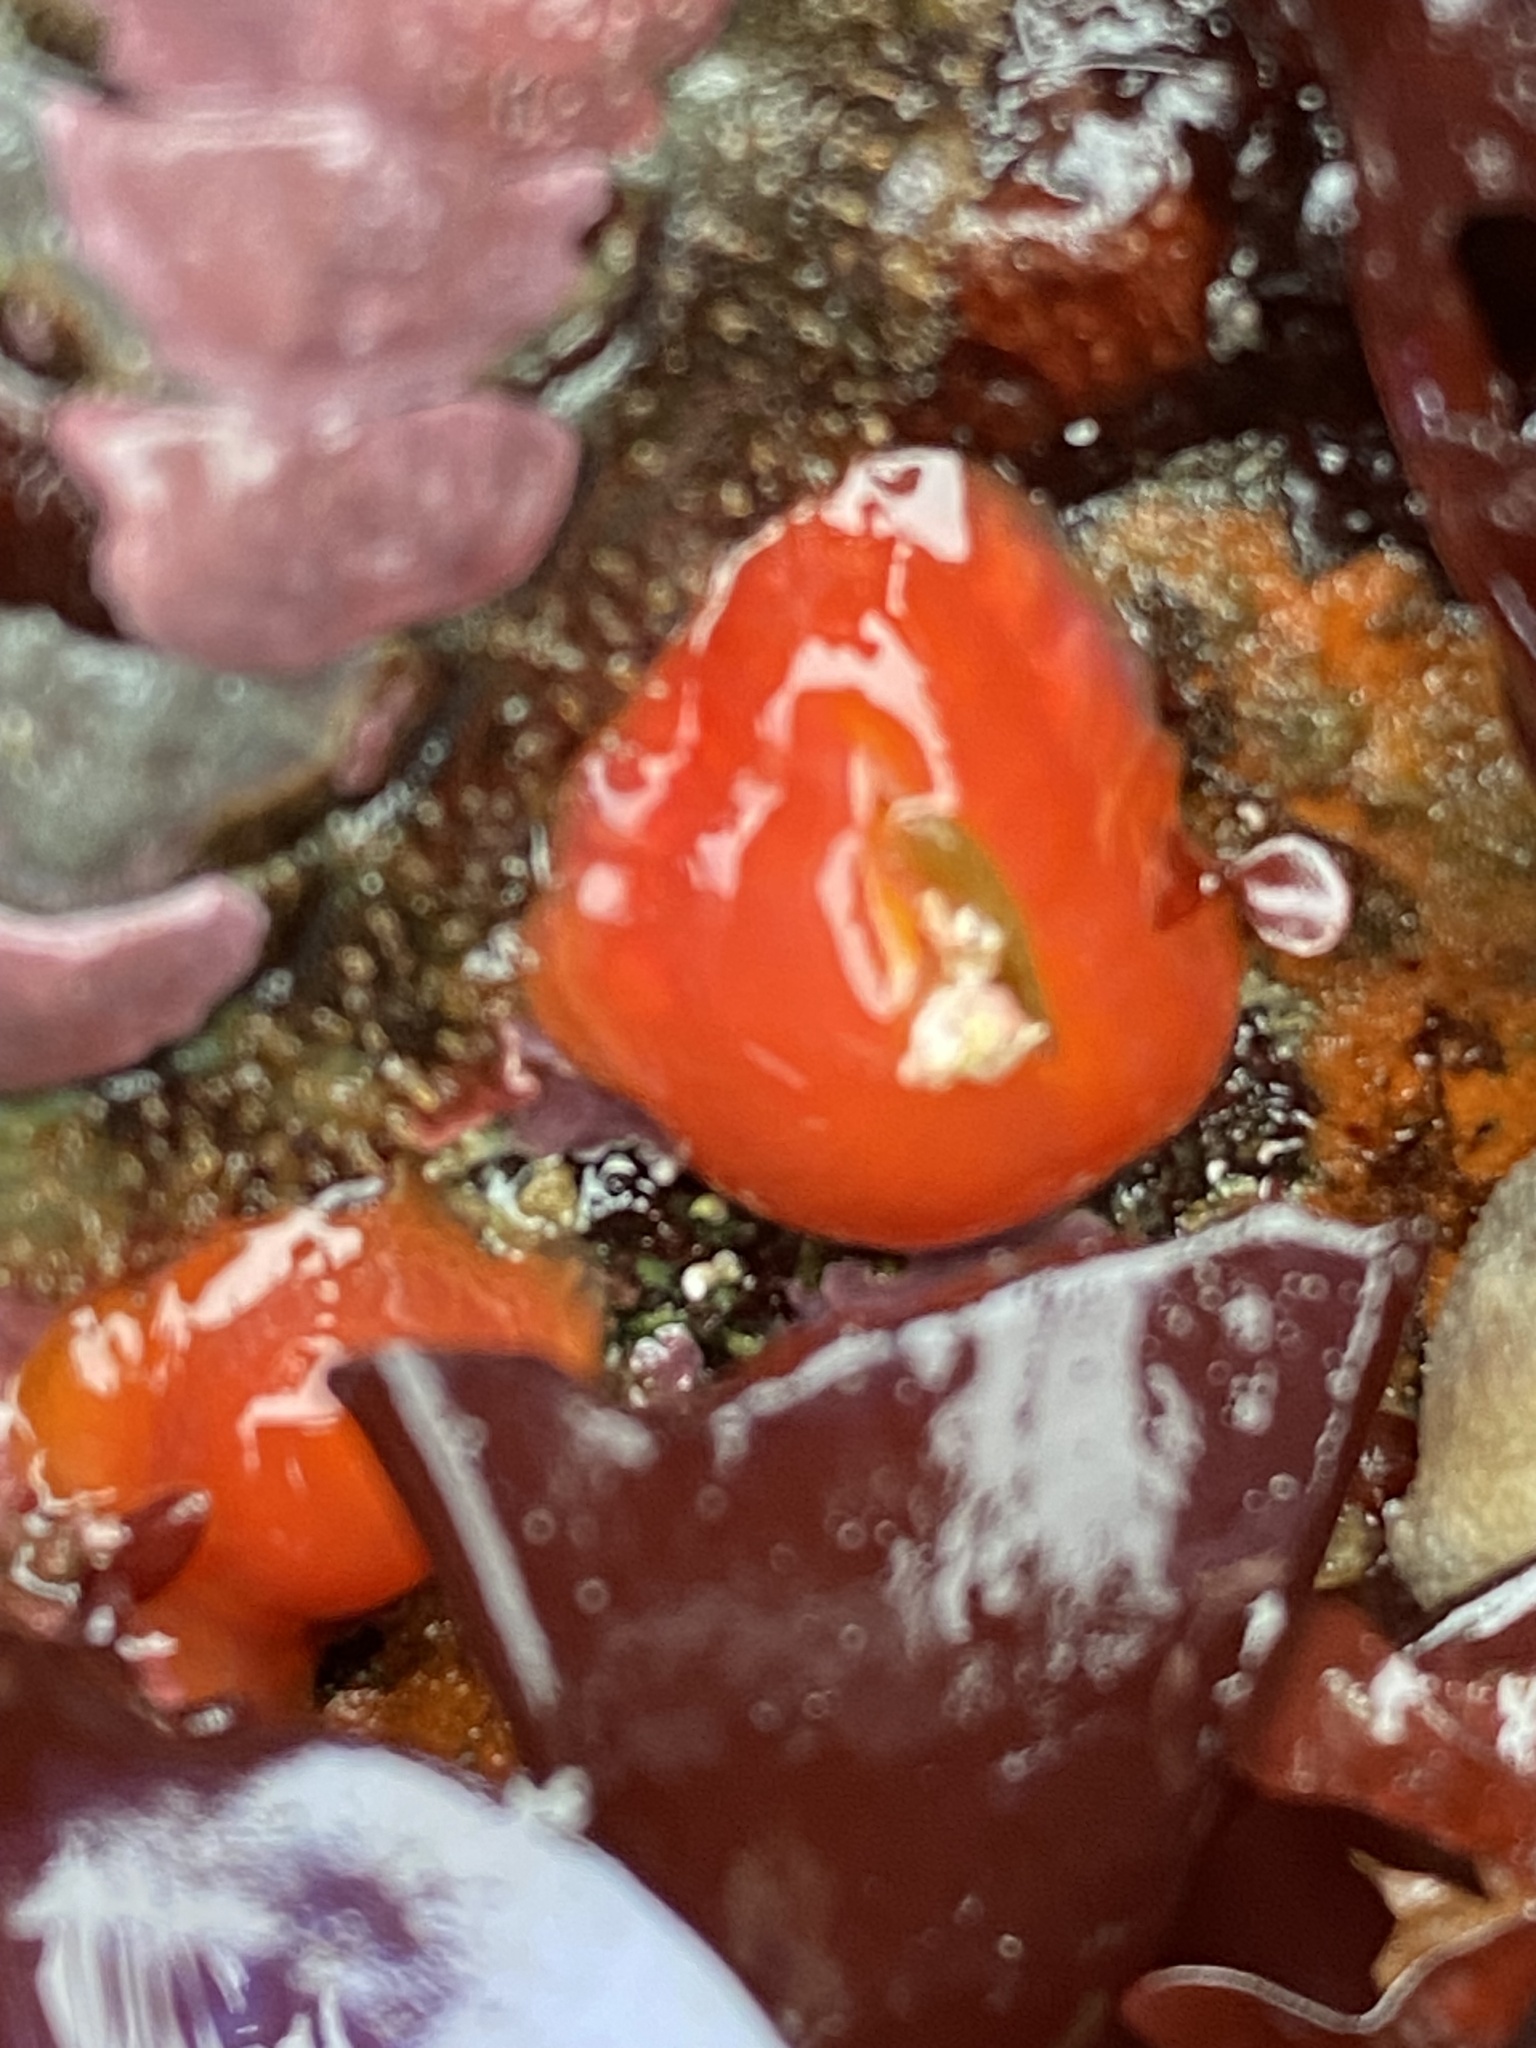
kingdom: Animalia
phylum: Cnidaria
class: Anthozoa
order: Corallimorpharia
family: Corallimorphidae
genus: Corynactis
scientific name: Corynactis californica
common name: Strawberry corallimorpharian
